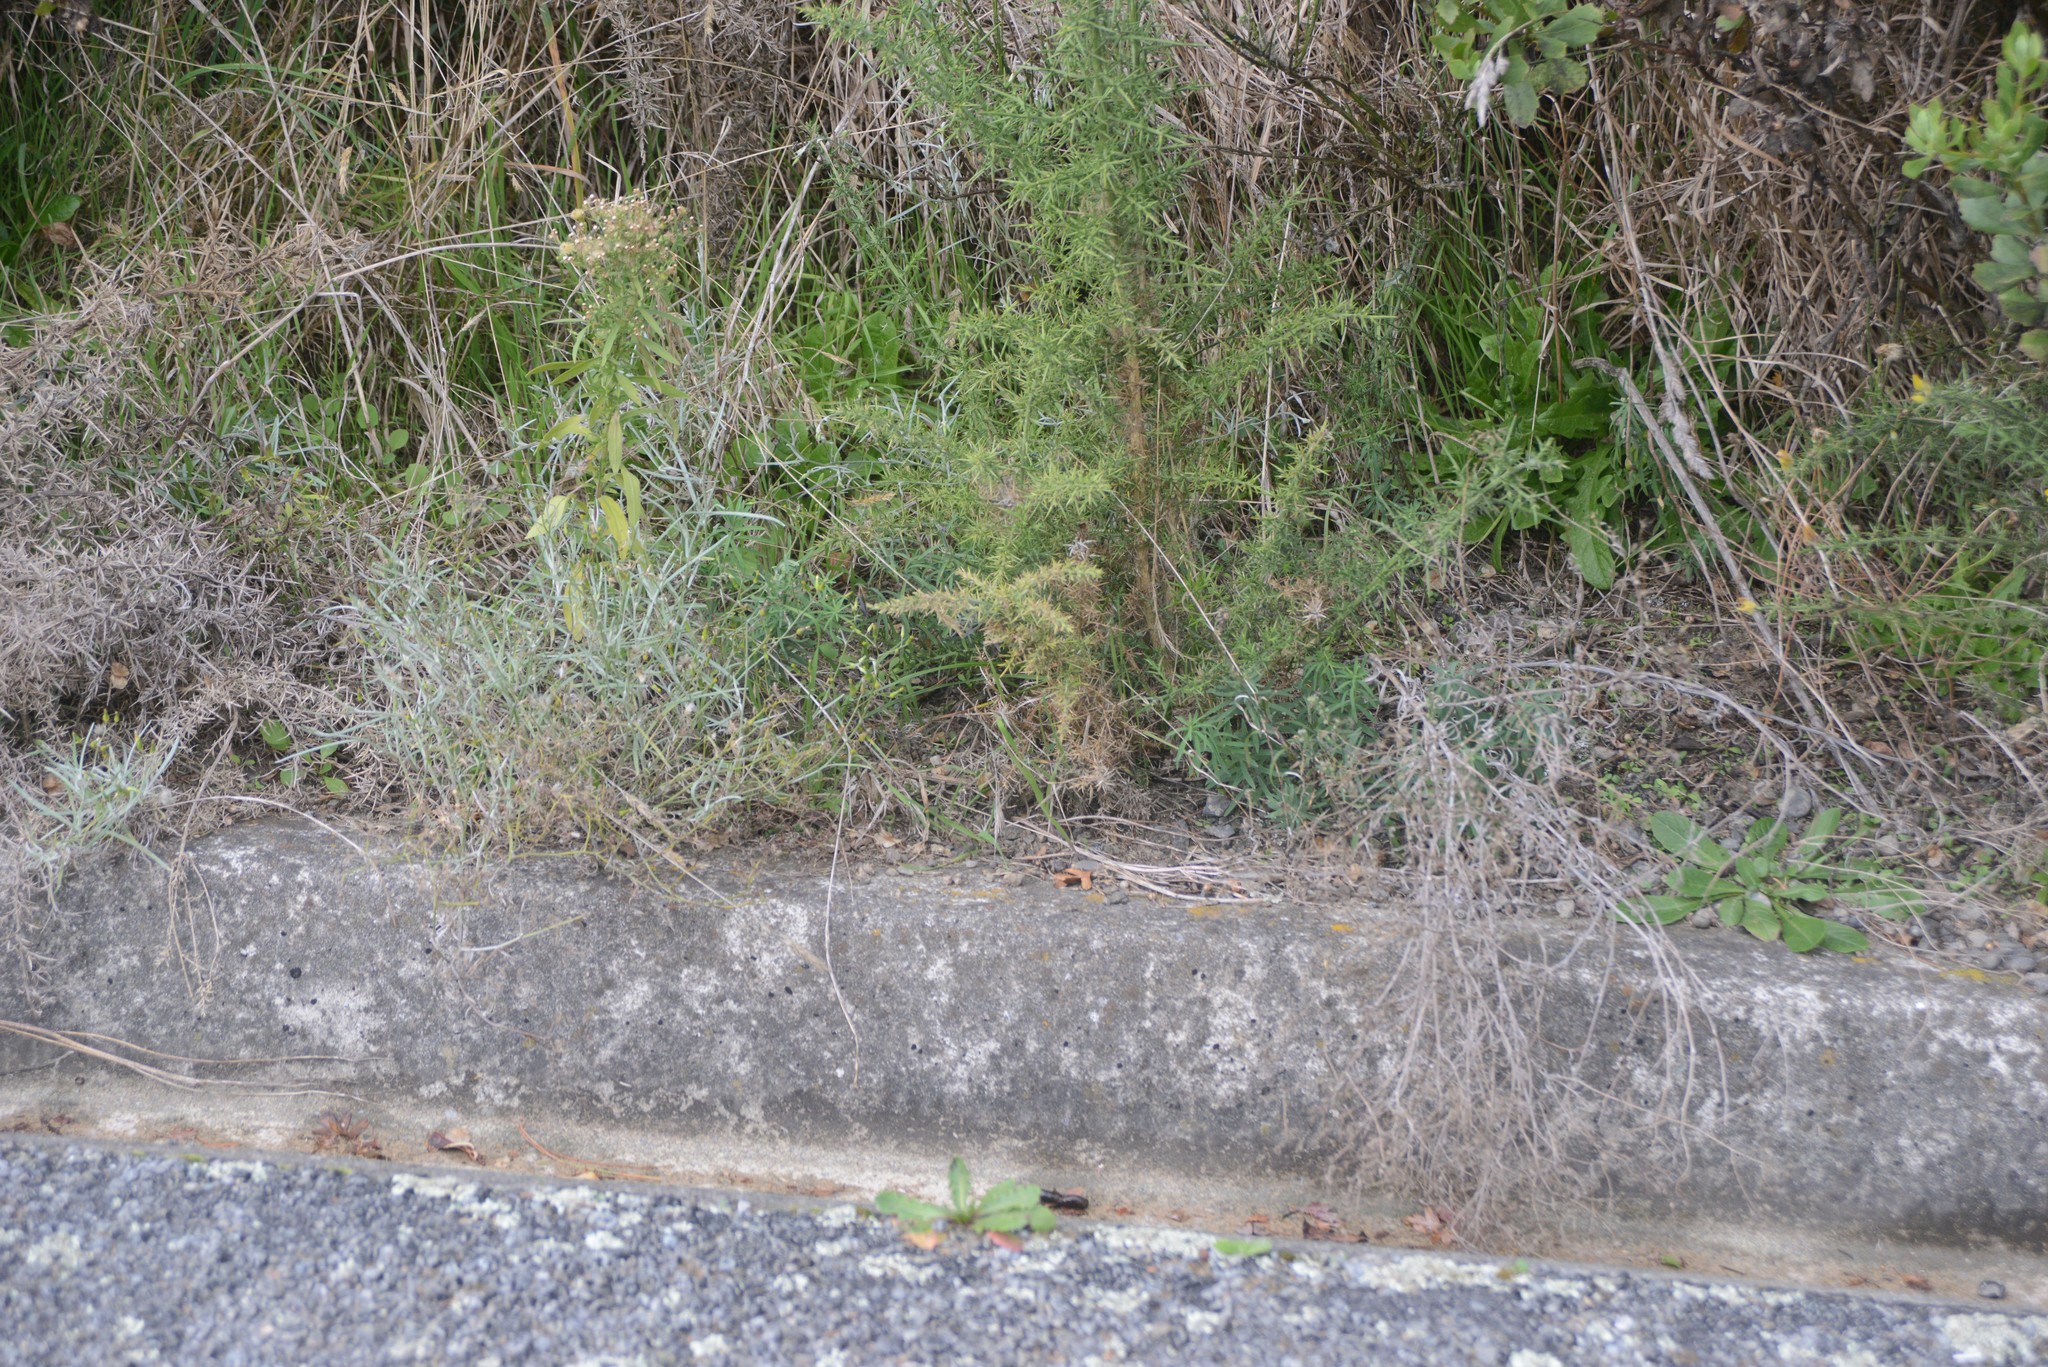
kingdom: Plantae
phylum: Tracheophyta
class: Magnoliopsida
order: Asterales
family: Asteraceae
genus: Senecio
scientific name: Senecio quadridentatus
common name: Cotton fireweed
